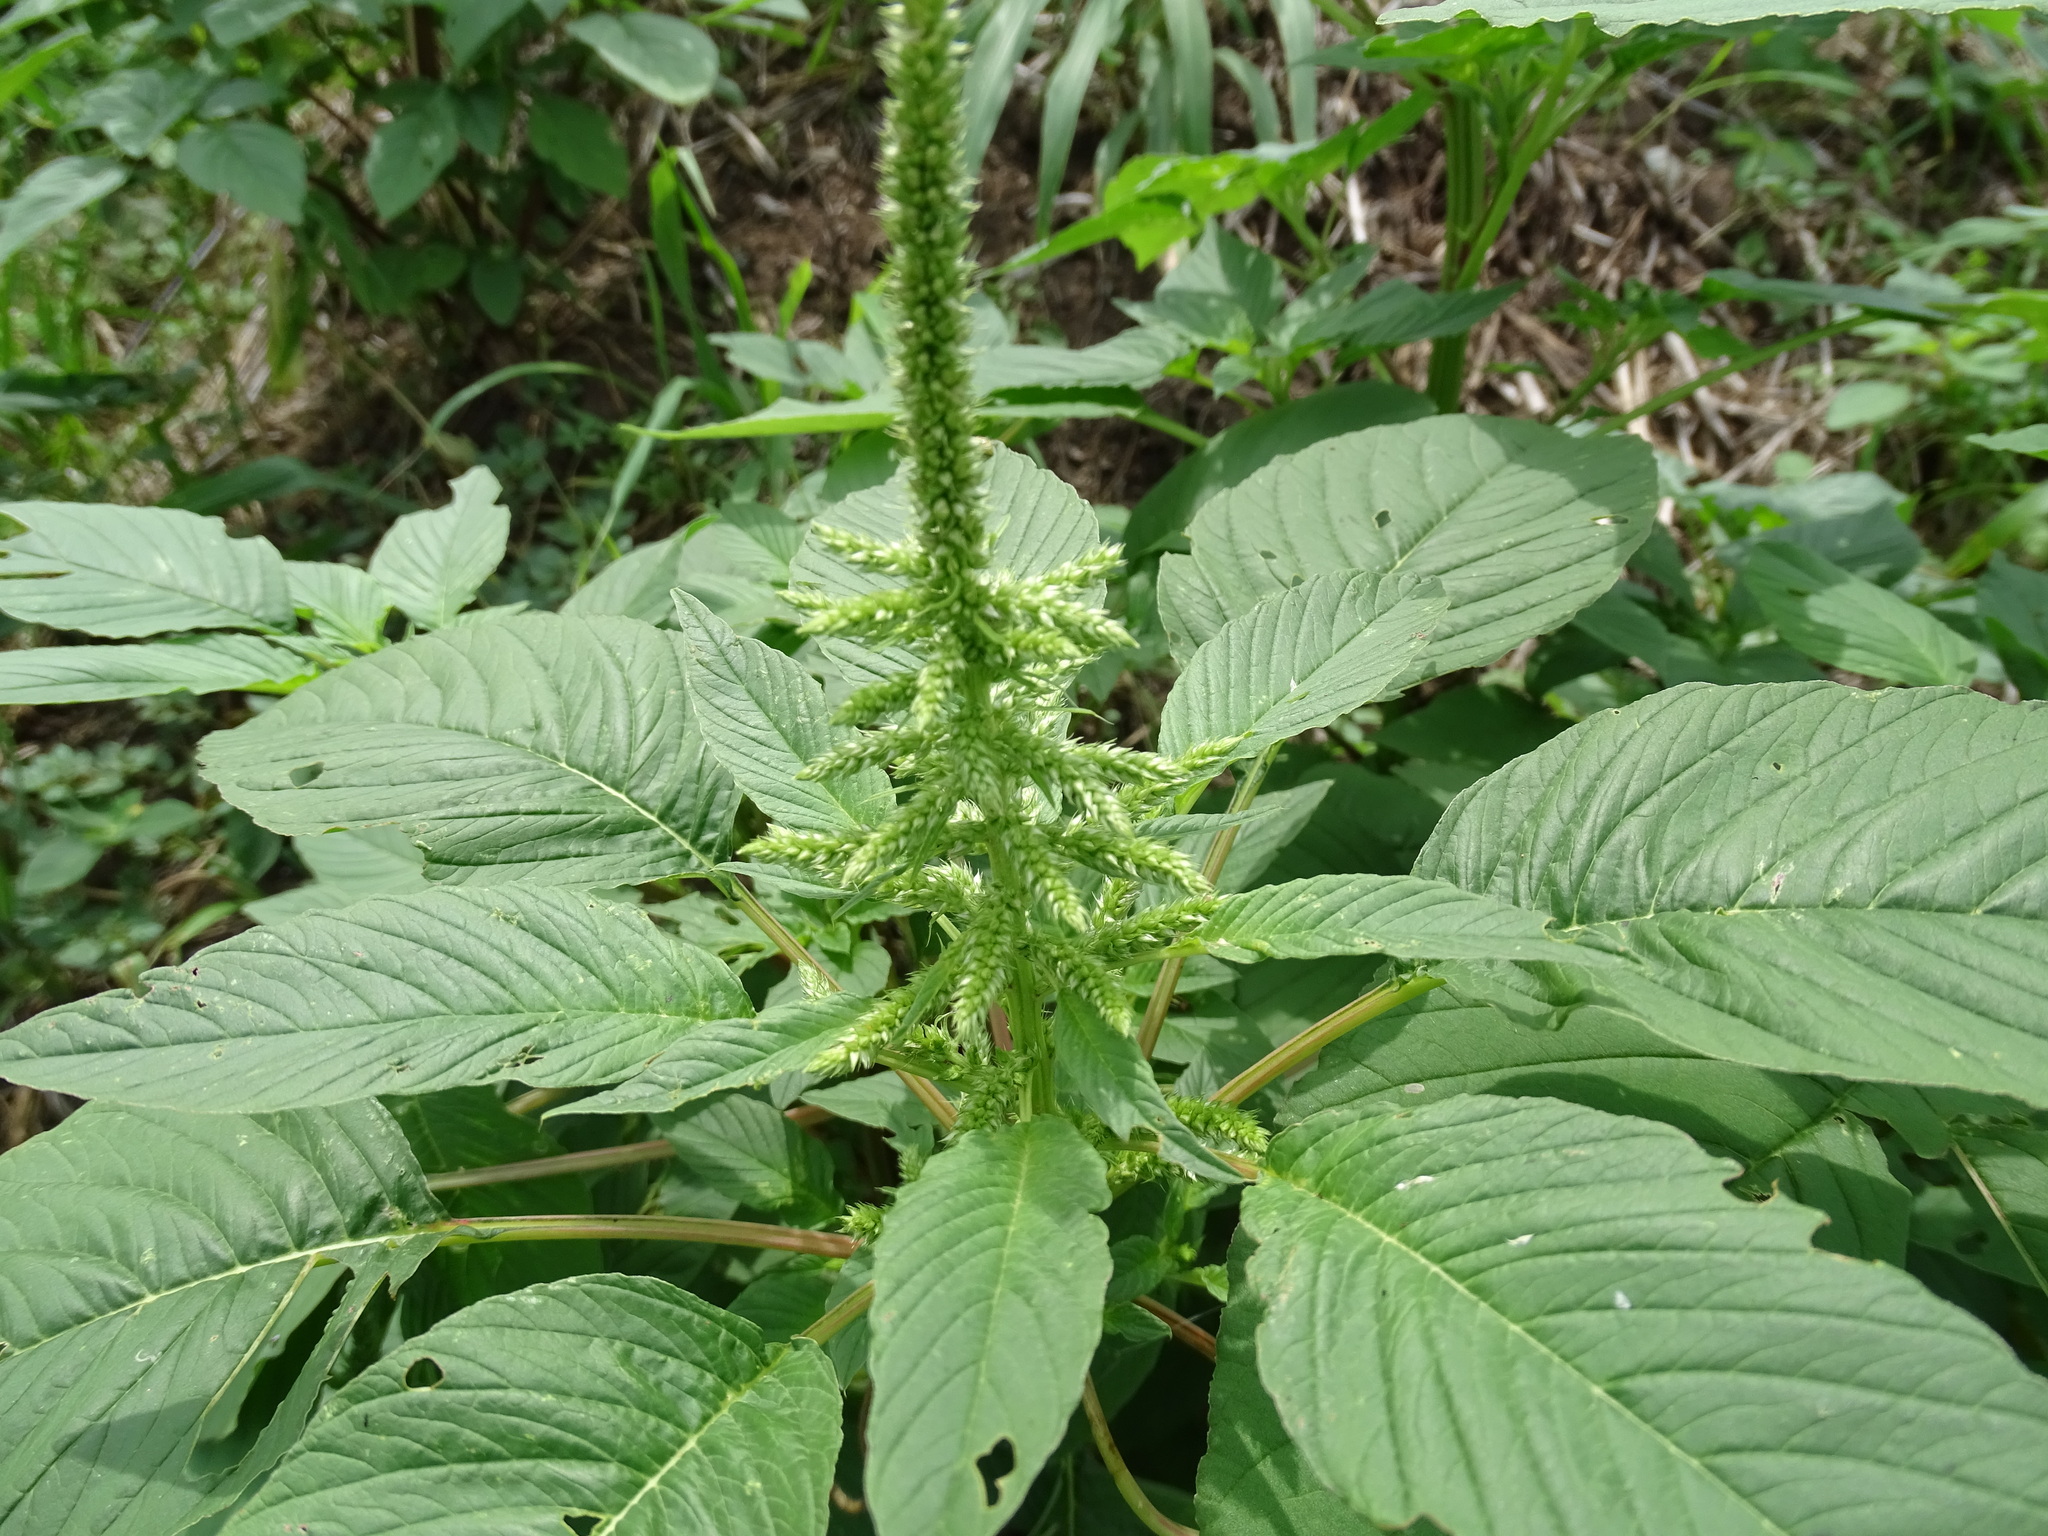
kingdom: Plantae
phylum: Tracheophyta
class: Magnoliopsida
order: Caryophyllales
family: Amaranthaceae
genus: Amaranthus
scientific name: Amaranthus spinosus
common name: Spiny amaranth
